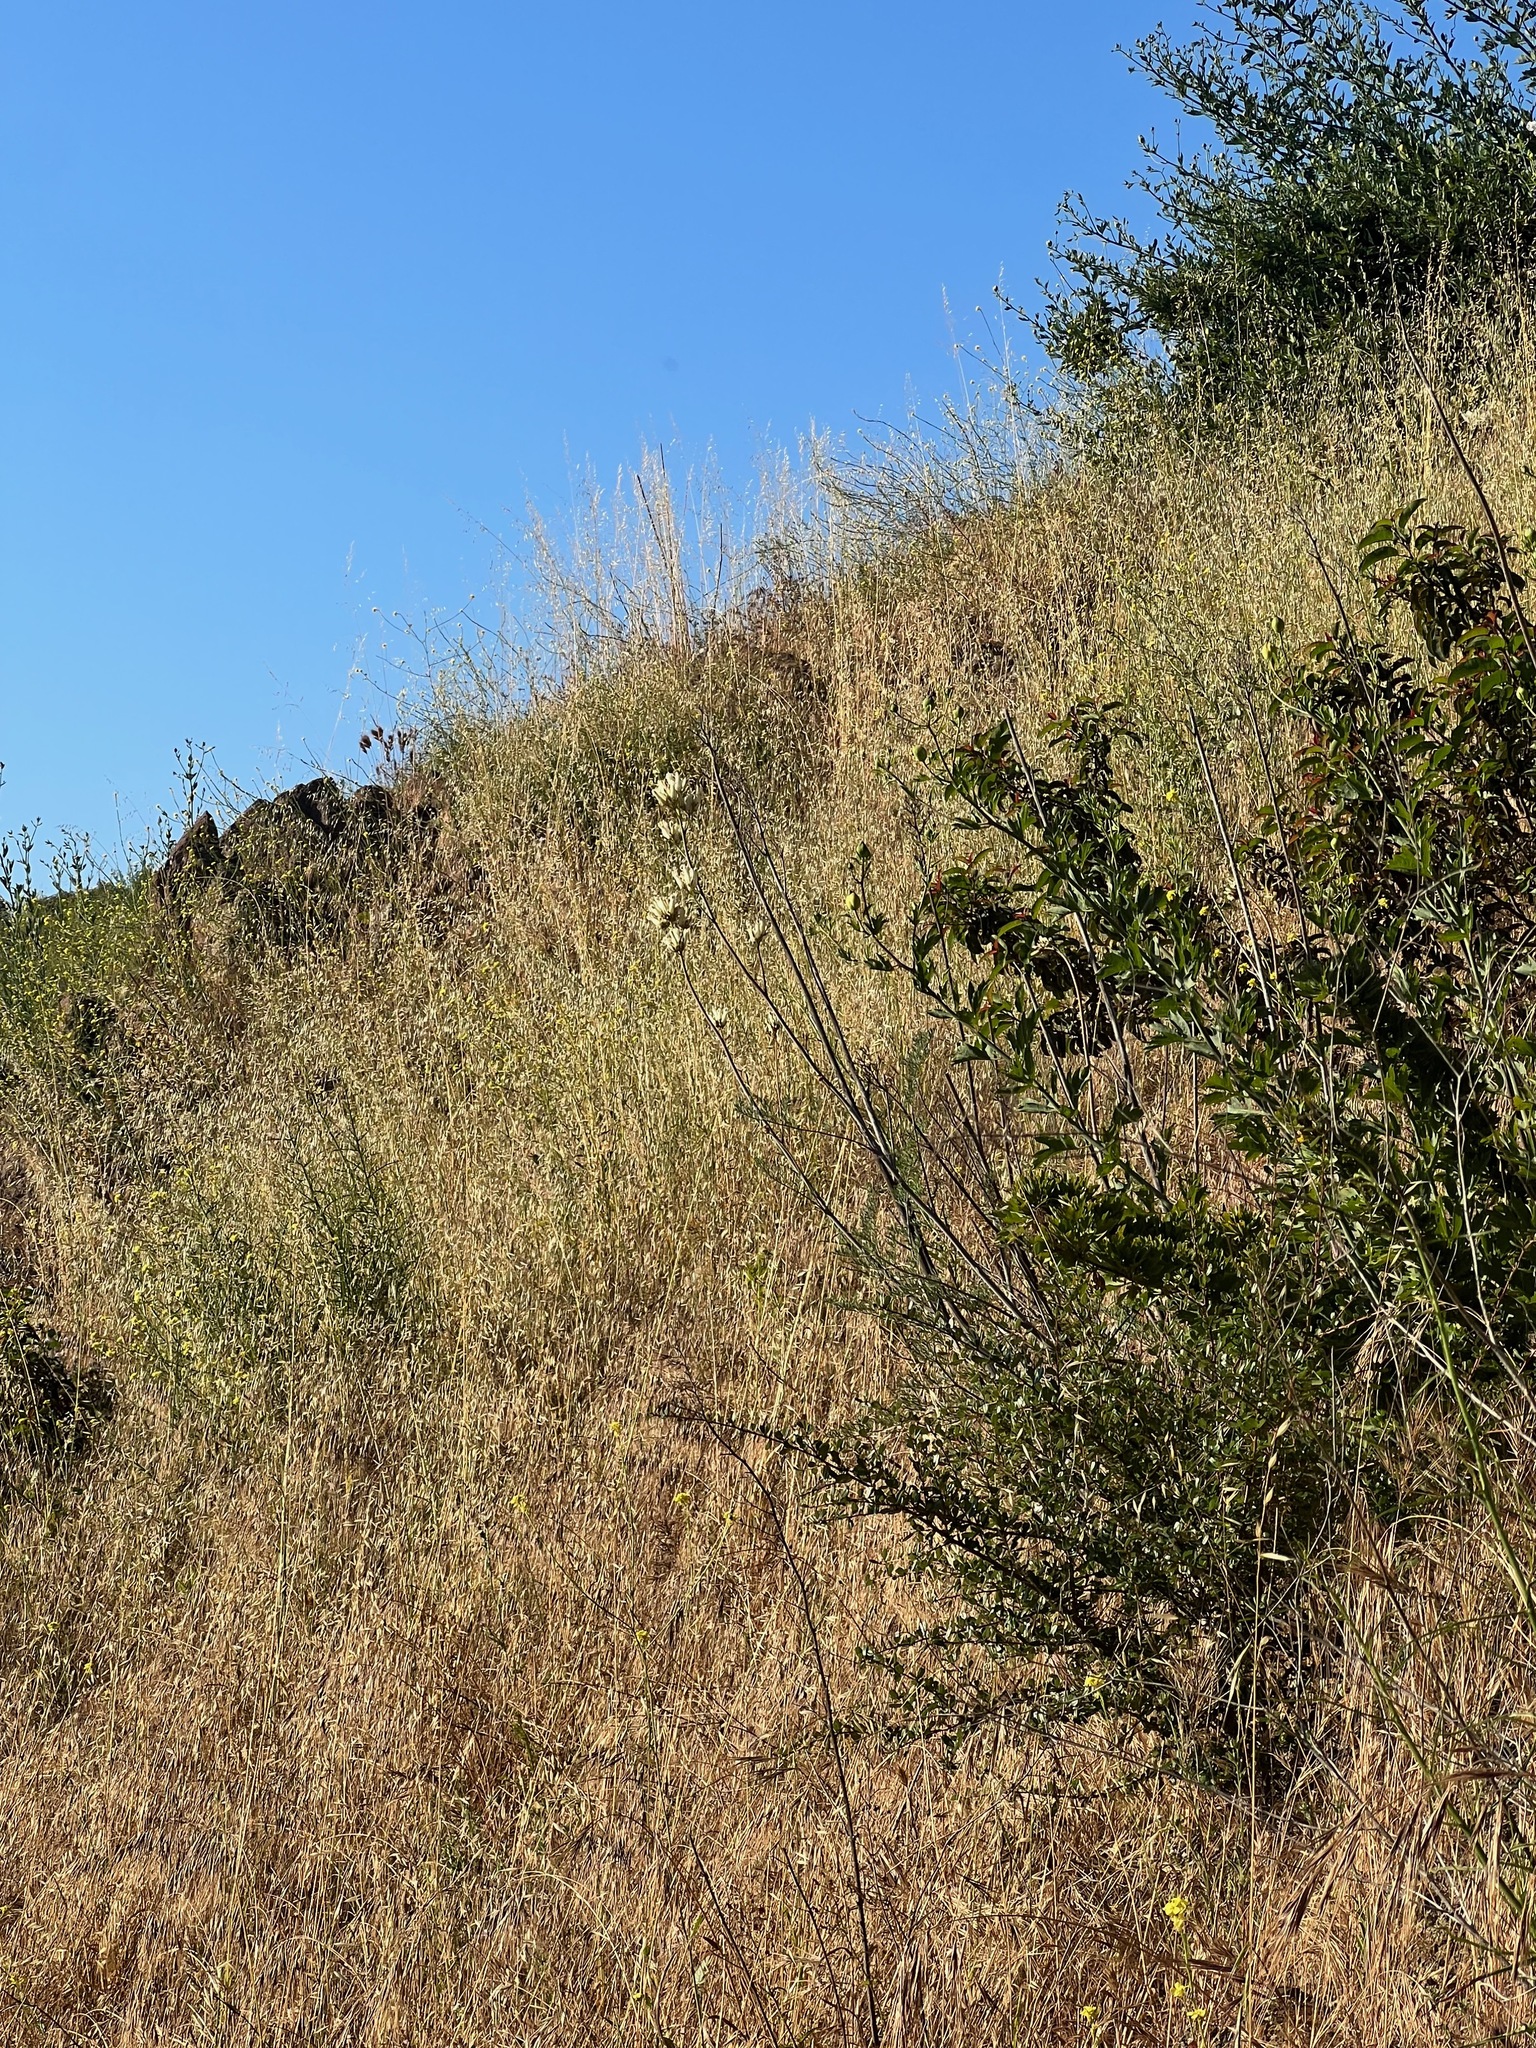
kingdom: Plantae
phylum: Tracheophyta
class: Magnoliopsida
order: Ranunculales
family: Papaveraceae
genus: Ehrendorferia
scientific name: Ehrendorferia ochroleuca
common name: White eardrops
